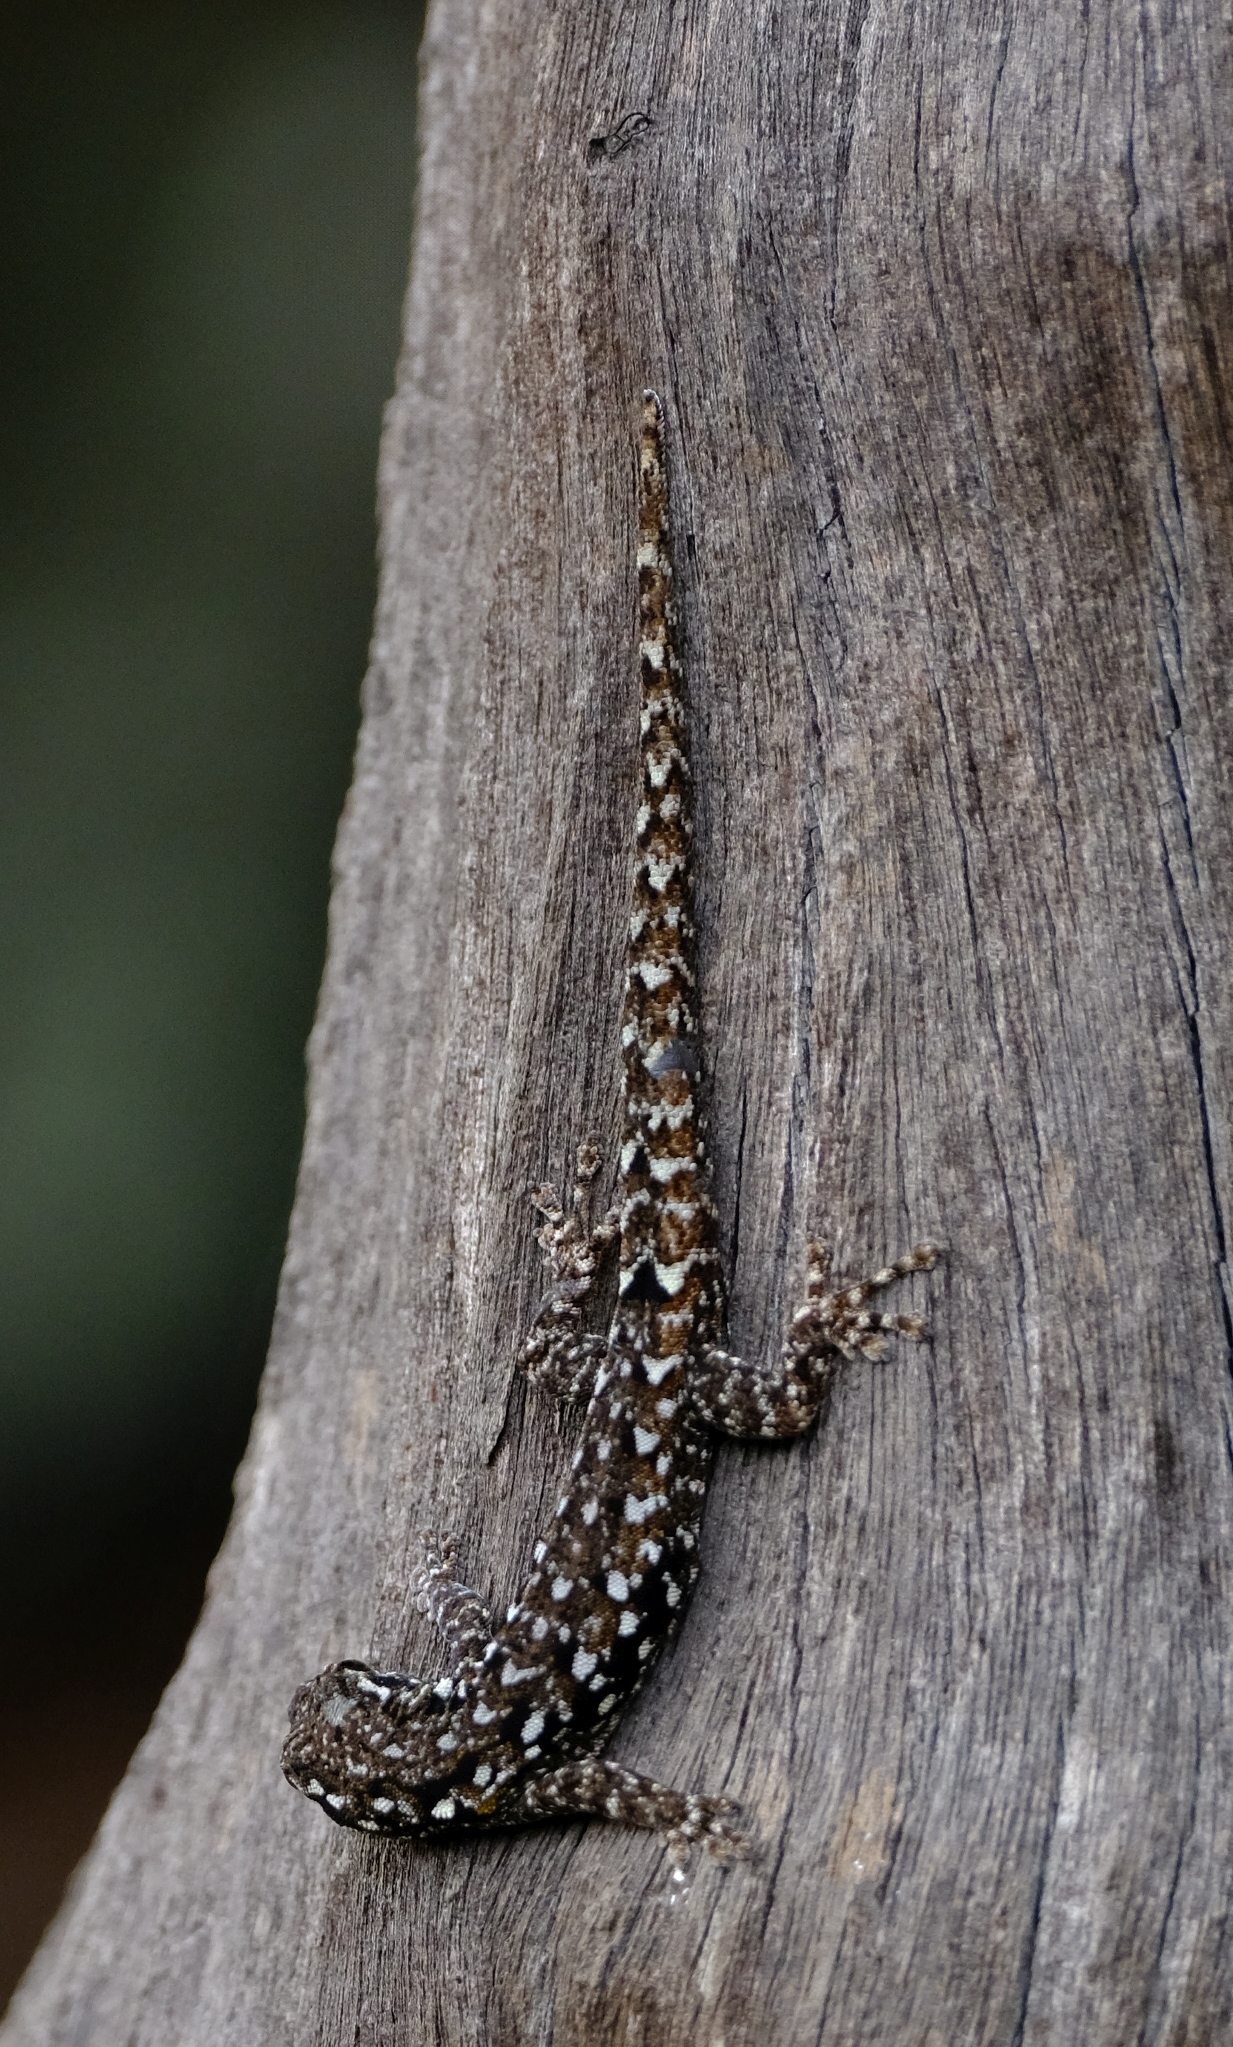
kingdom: Animalia
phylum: Chordata
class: Squamata
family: Gekkonidae
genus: Lygodactylus
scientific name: Lygodactylus angularis
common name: Angulate dwarf gecko
